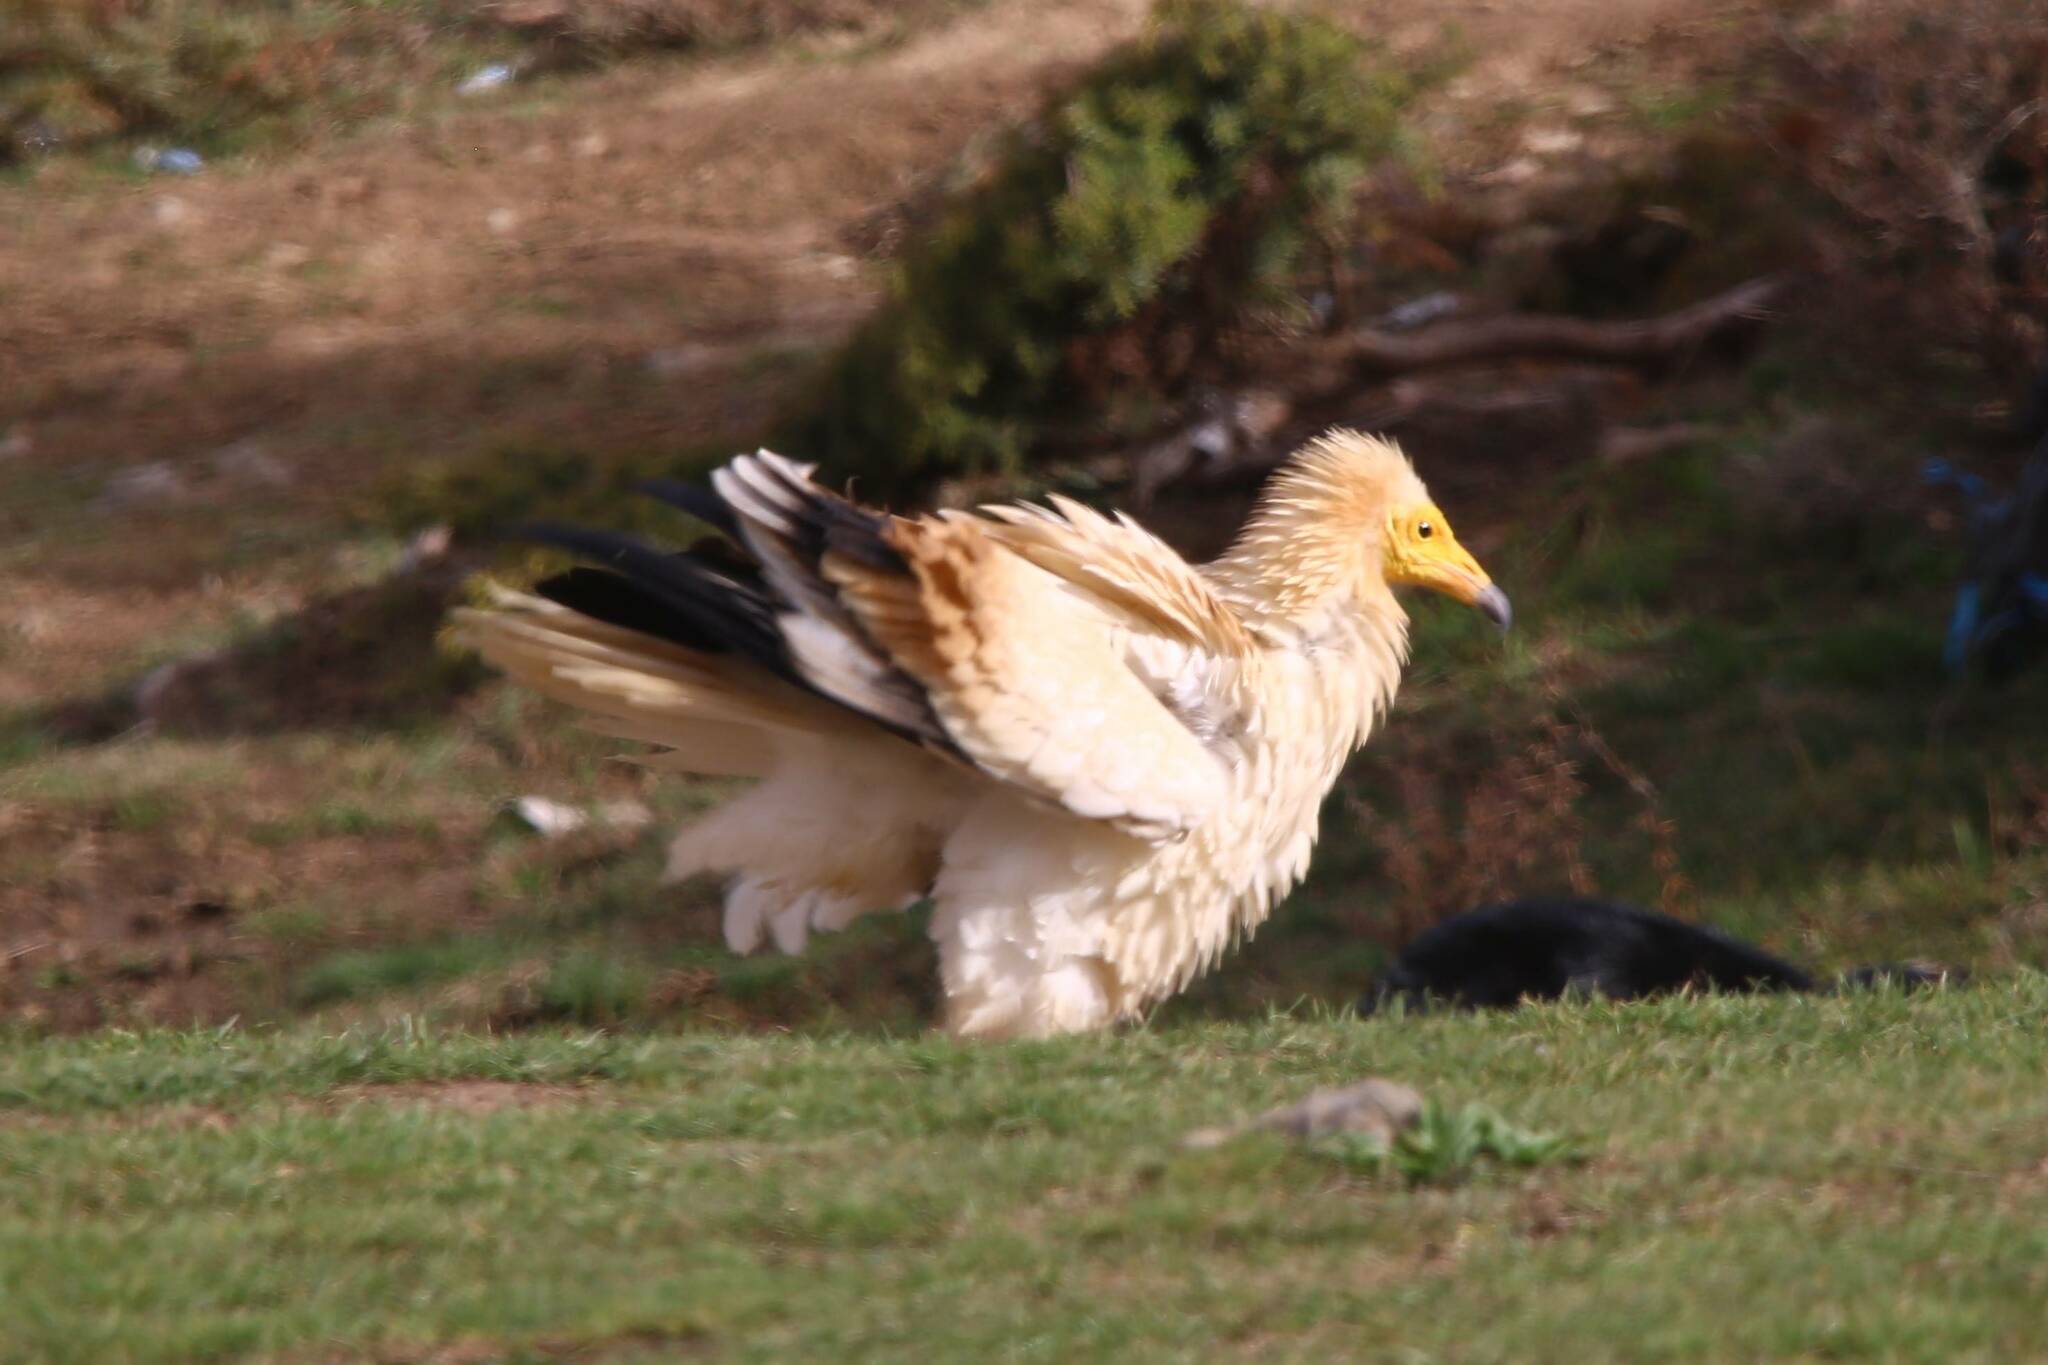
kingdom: Animalia
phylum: Chordata
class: Aves
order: Accipitriformes
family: Accipitridae
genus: Neophron
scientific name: Neophron percnopterus
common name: Egyptian vulture
